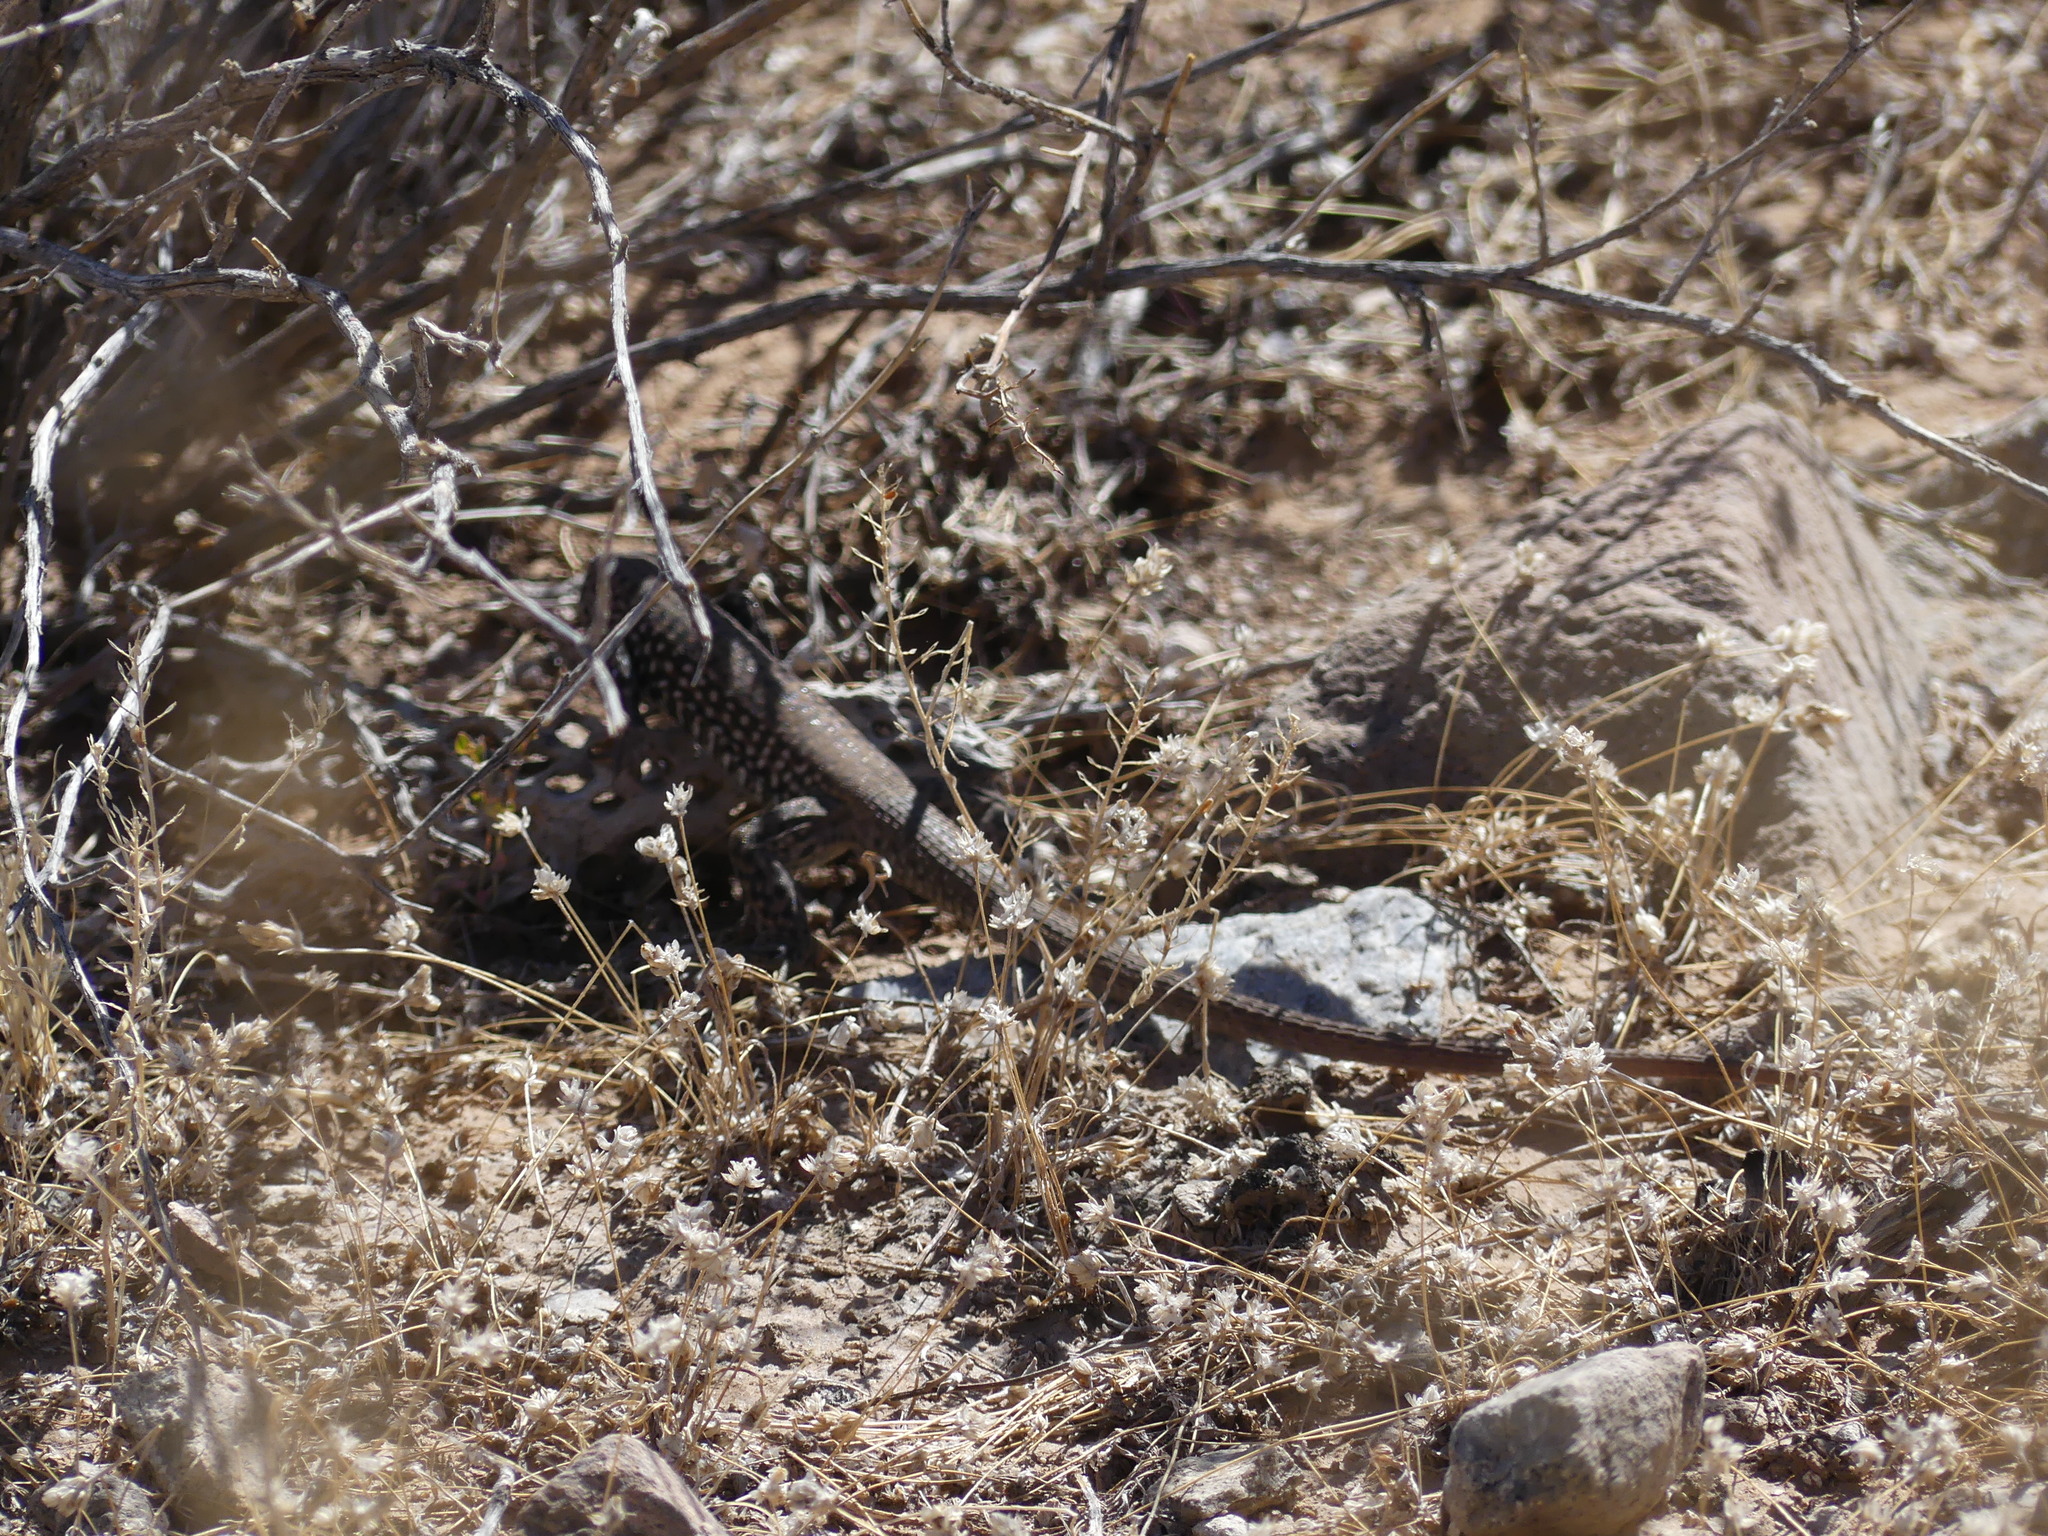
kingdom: Animalia
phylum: Chordata
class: Squamata
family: Teiidae
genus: Aspidoscelis
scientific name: Aspidoscelis tigris
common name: Tiger whiptail
